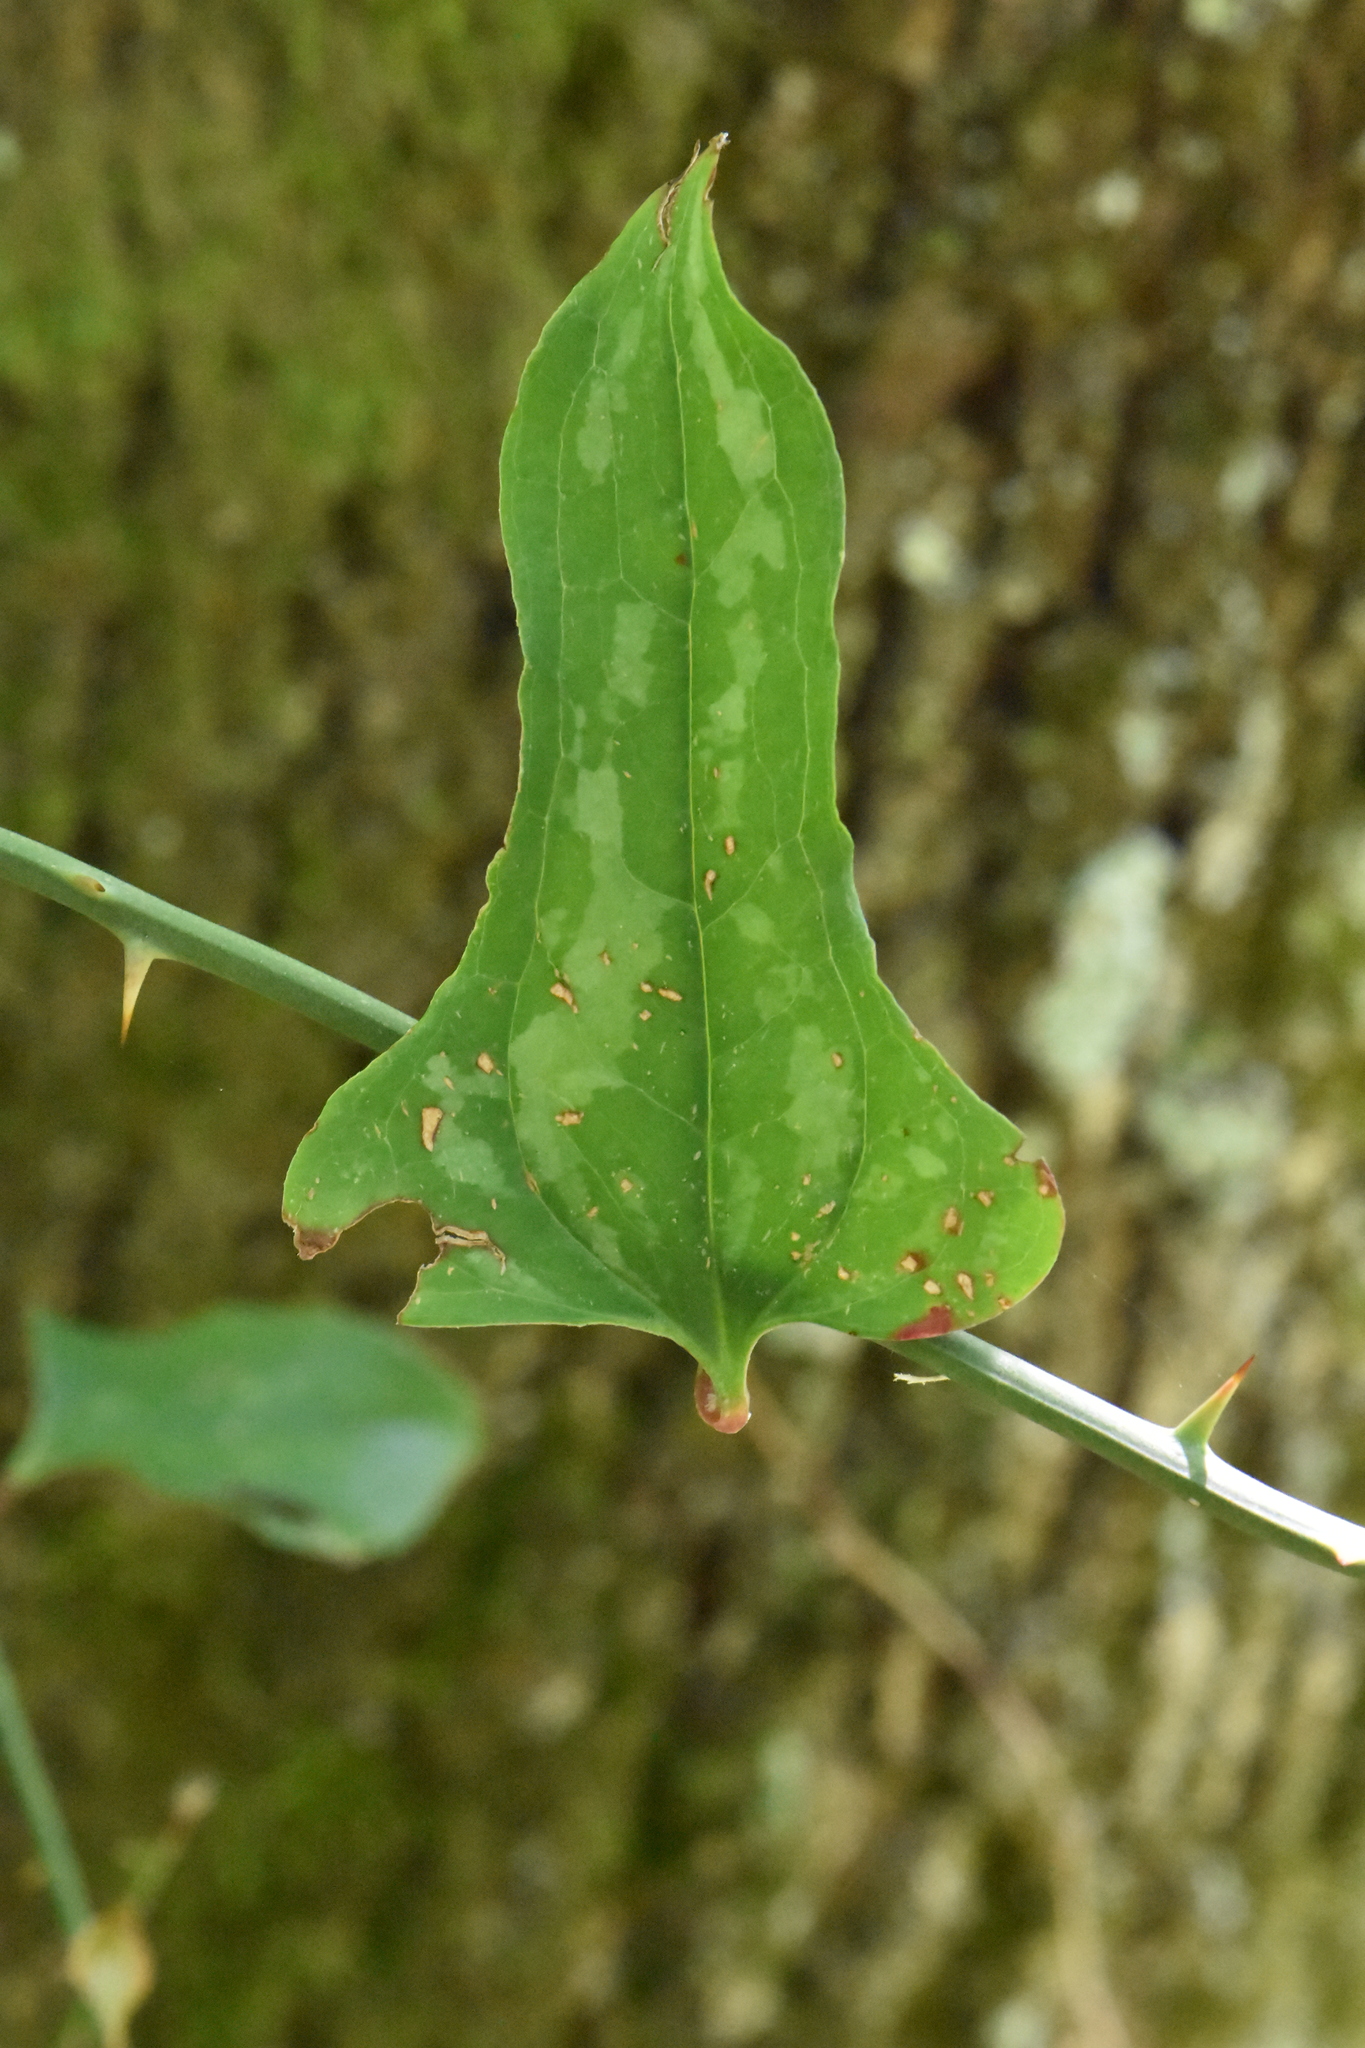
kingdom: Plantae
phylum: Tracheophyta
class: Liliopsida
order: Liliales
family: Smilacaceae
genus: Smilax
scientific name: Smilax excelsa
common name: Larger smilax
